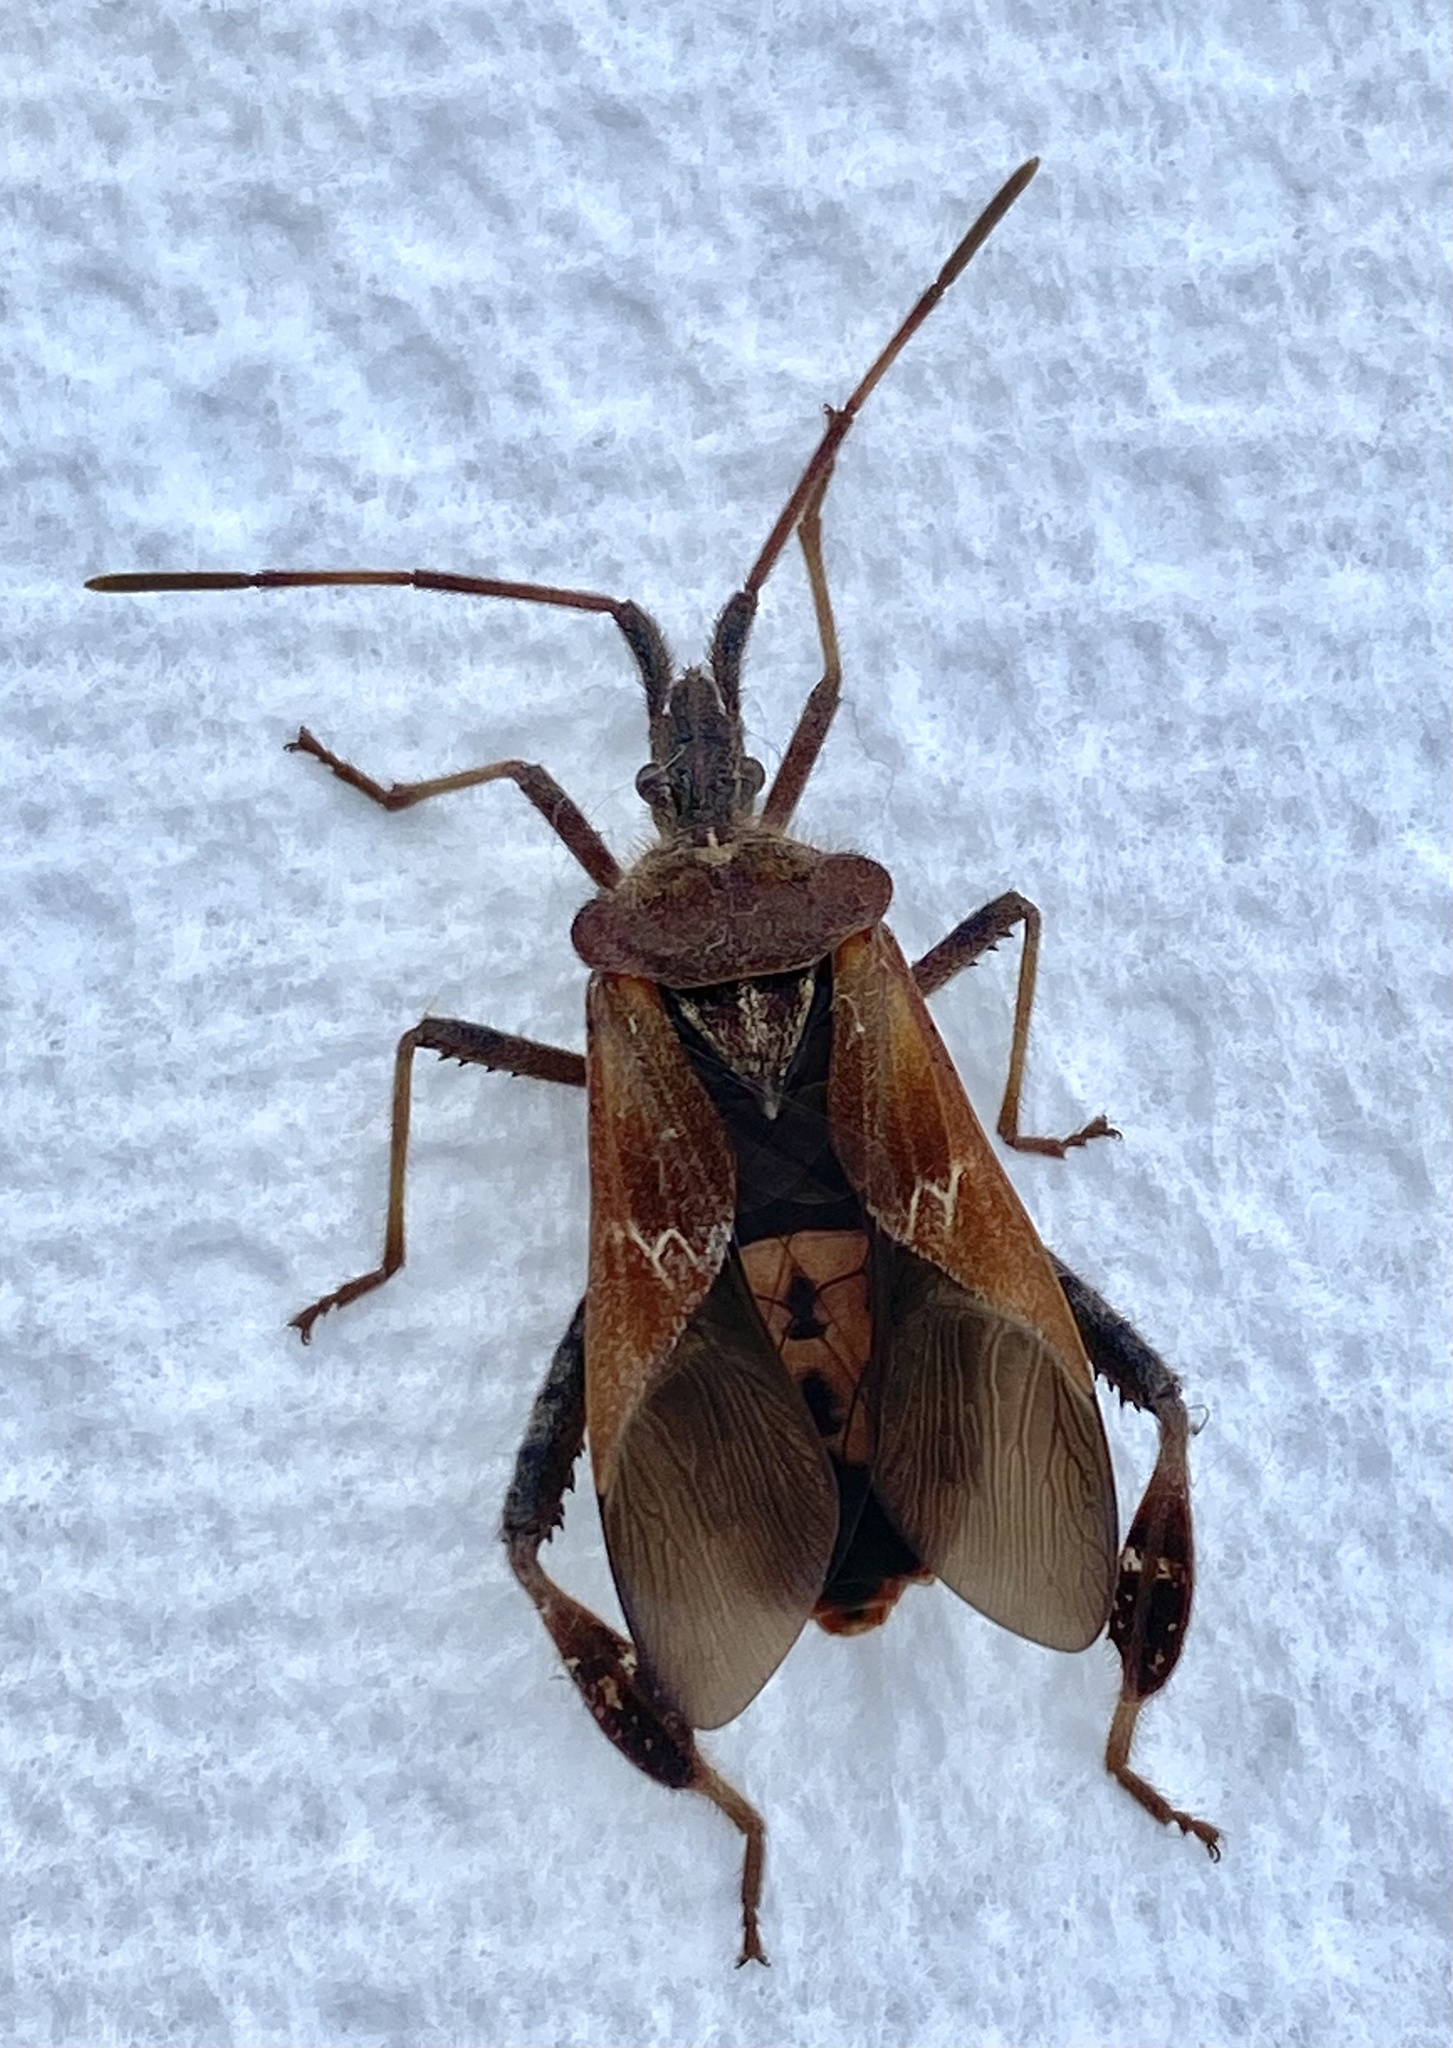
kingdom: Animalia
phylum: Arthropoda
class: Insecta
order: Hemiptera
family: Coreidae
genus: Leptoglossus
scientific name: Leptoglossus occidentalis
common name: Western conifer-seed bug
